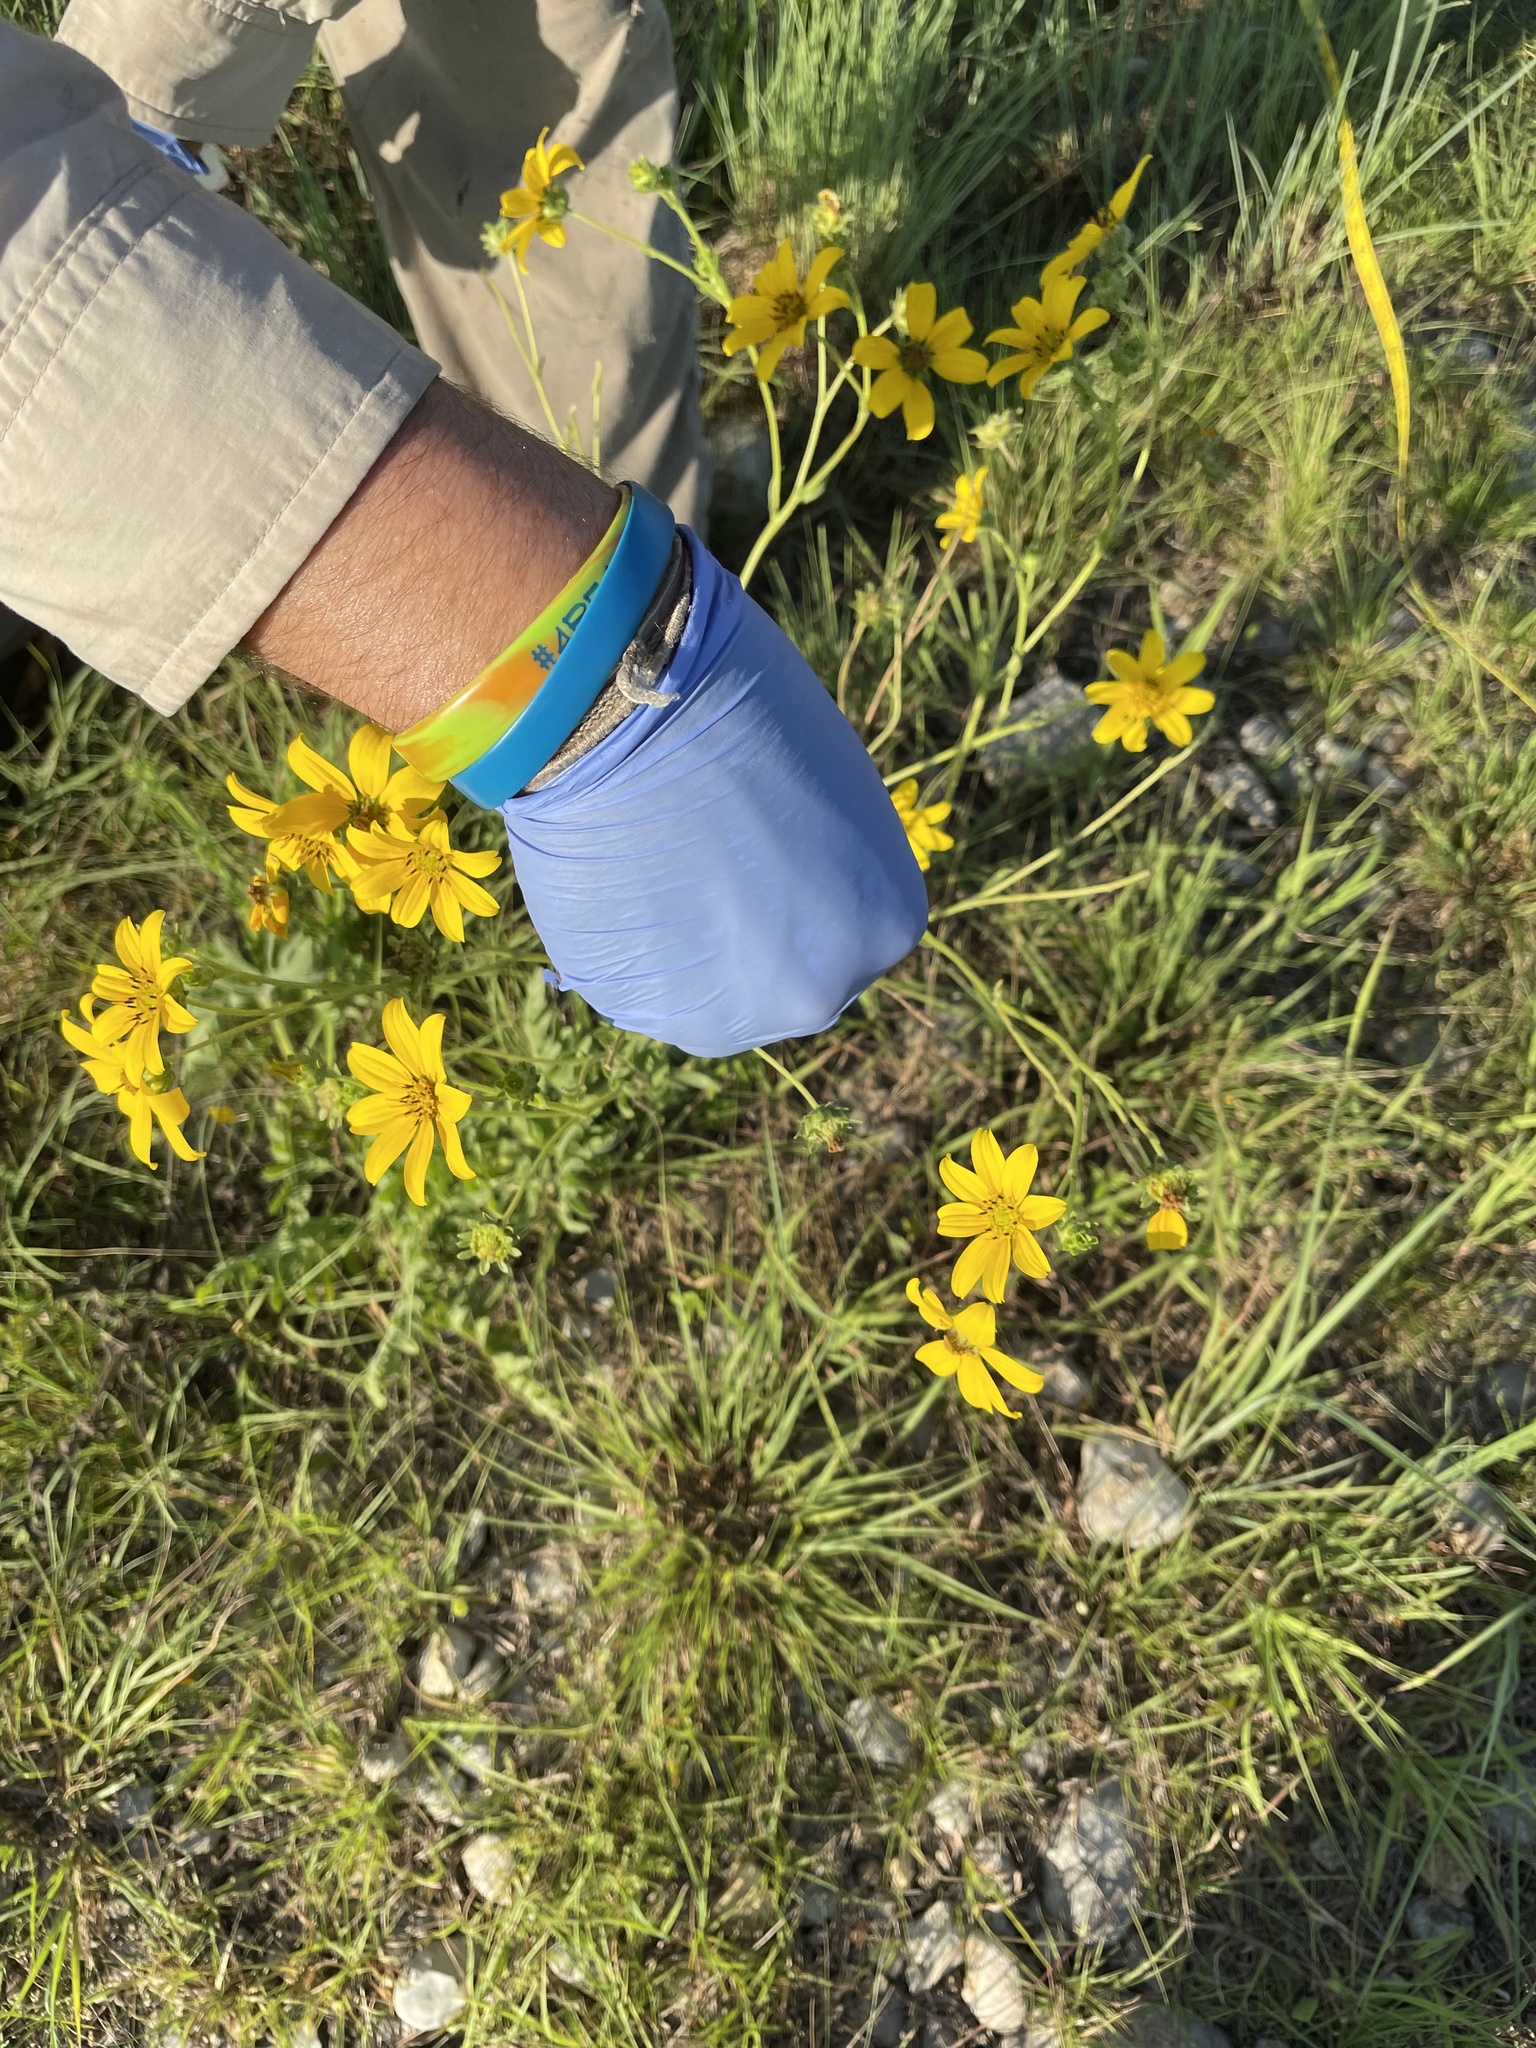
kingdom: Plantae
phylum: Tracheophyta
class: Magnoliopsida
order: Asterales
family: Asteraceae
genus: Engelmannia
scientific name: Engelmannia peristenia
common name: Engelmann's daisy
